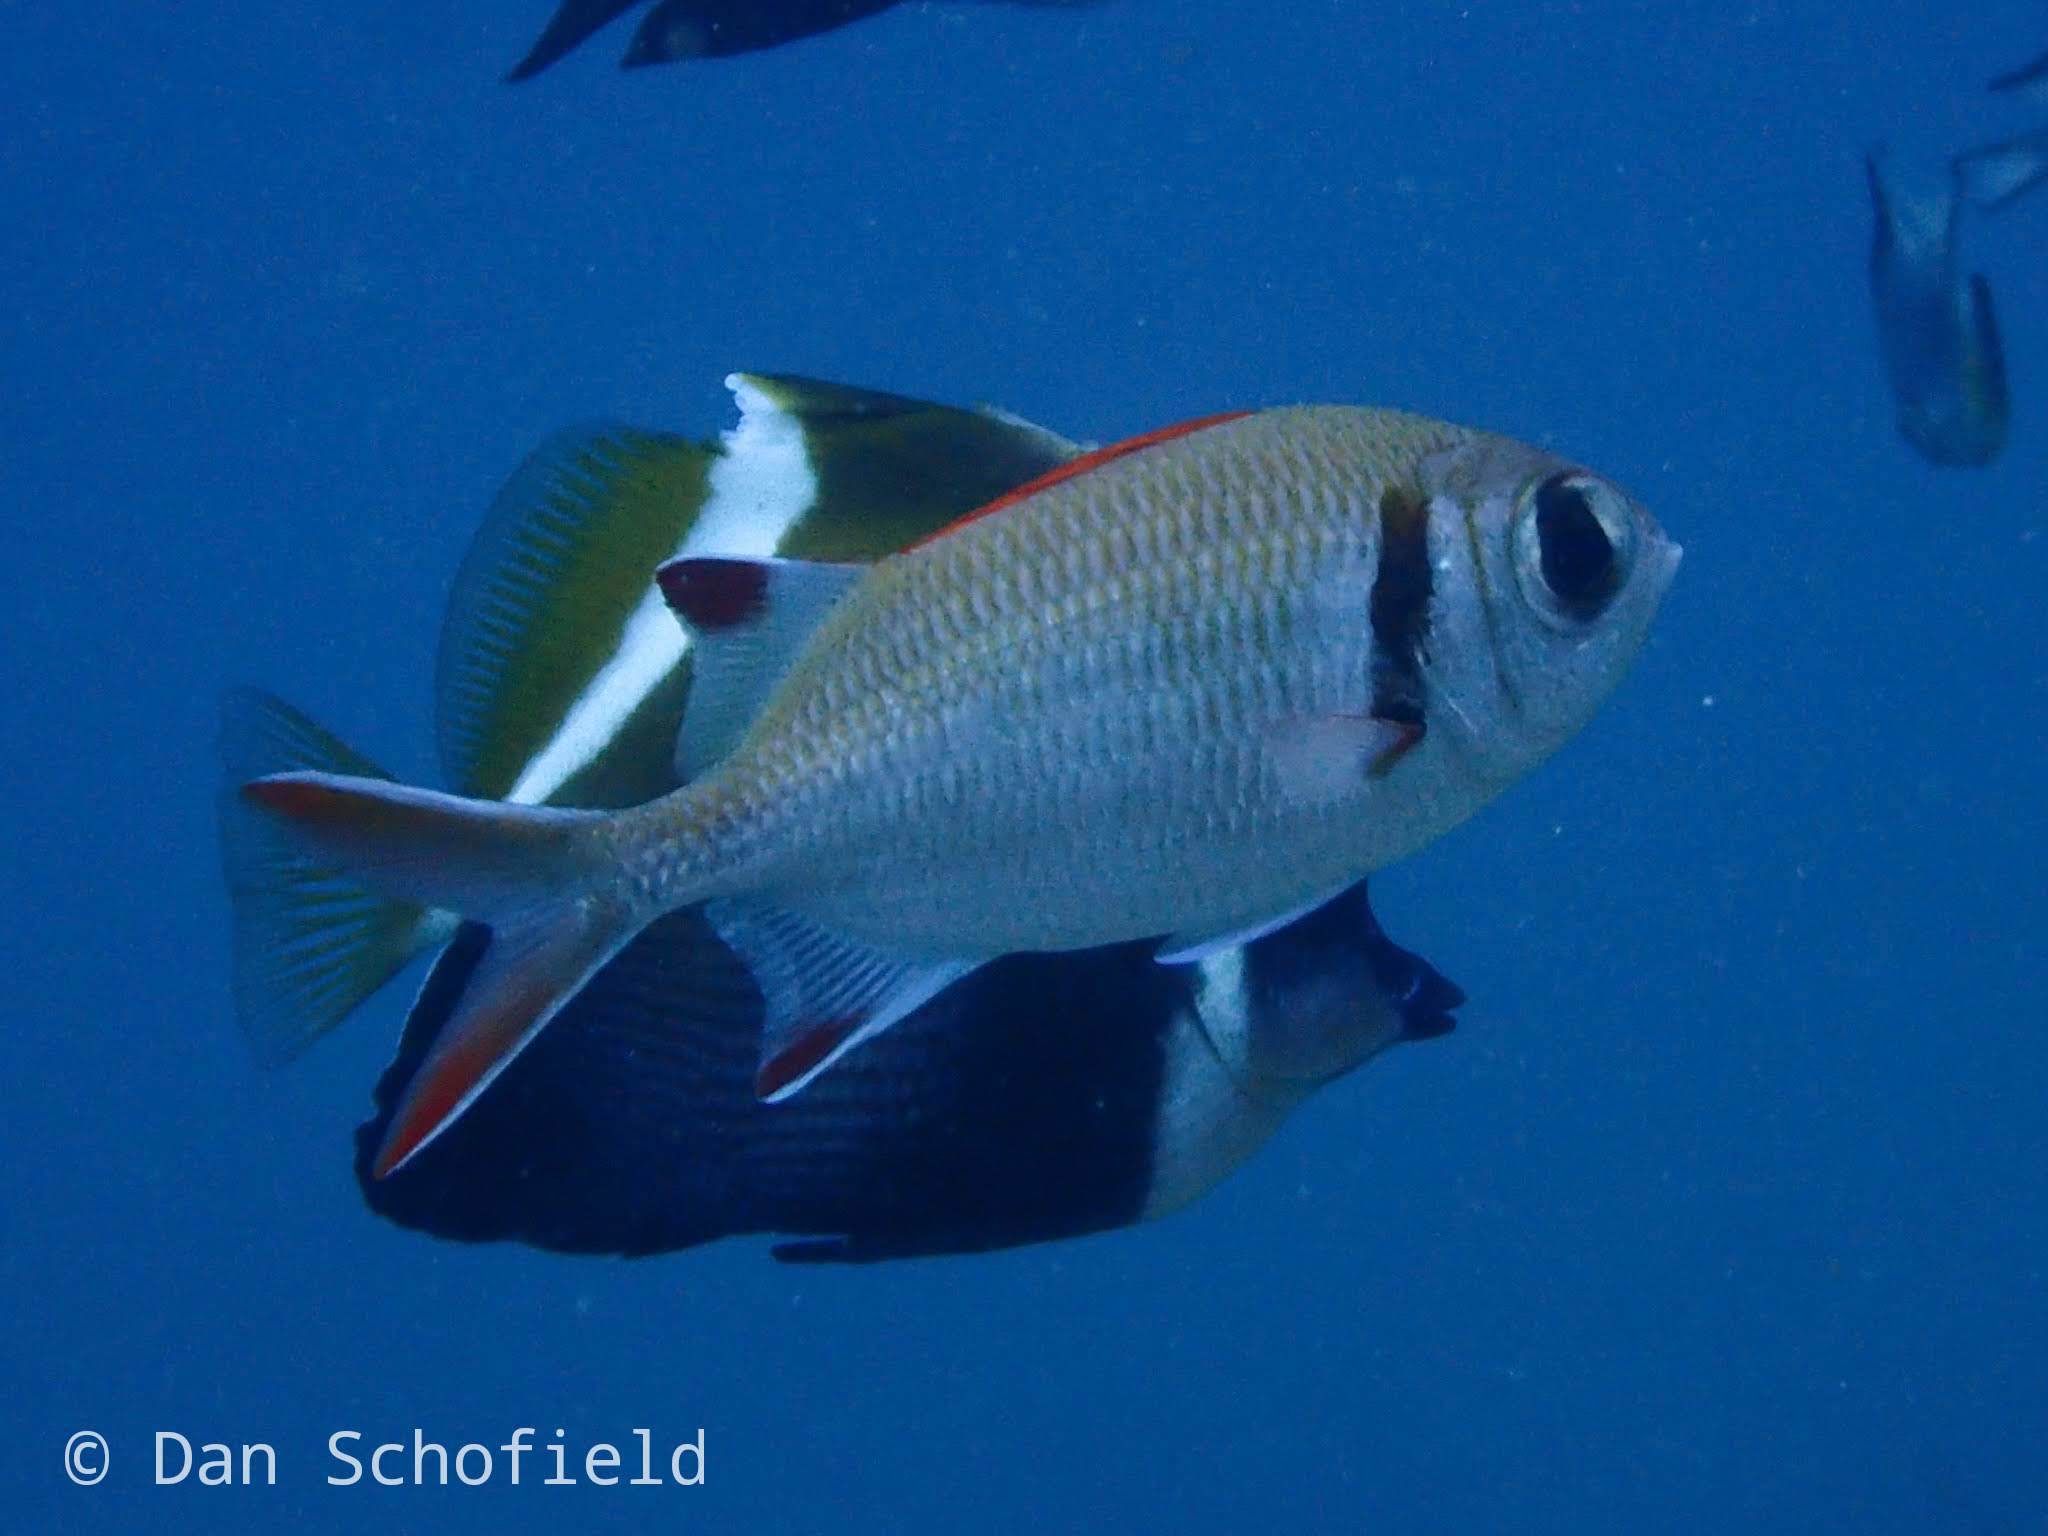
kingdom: Animalia
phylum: Chordata
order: Beryciformes
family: Holocentridae
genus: Myripristis
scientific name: Myripristis kuntee
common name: Epaulette soldierfish
